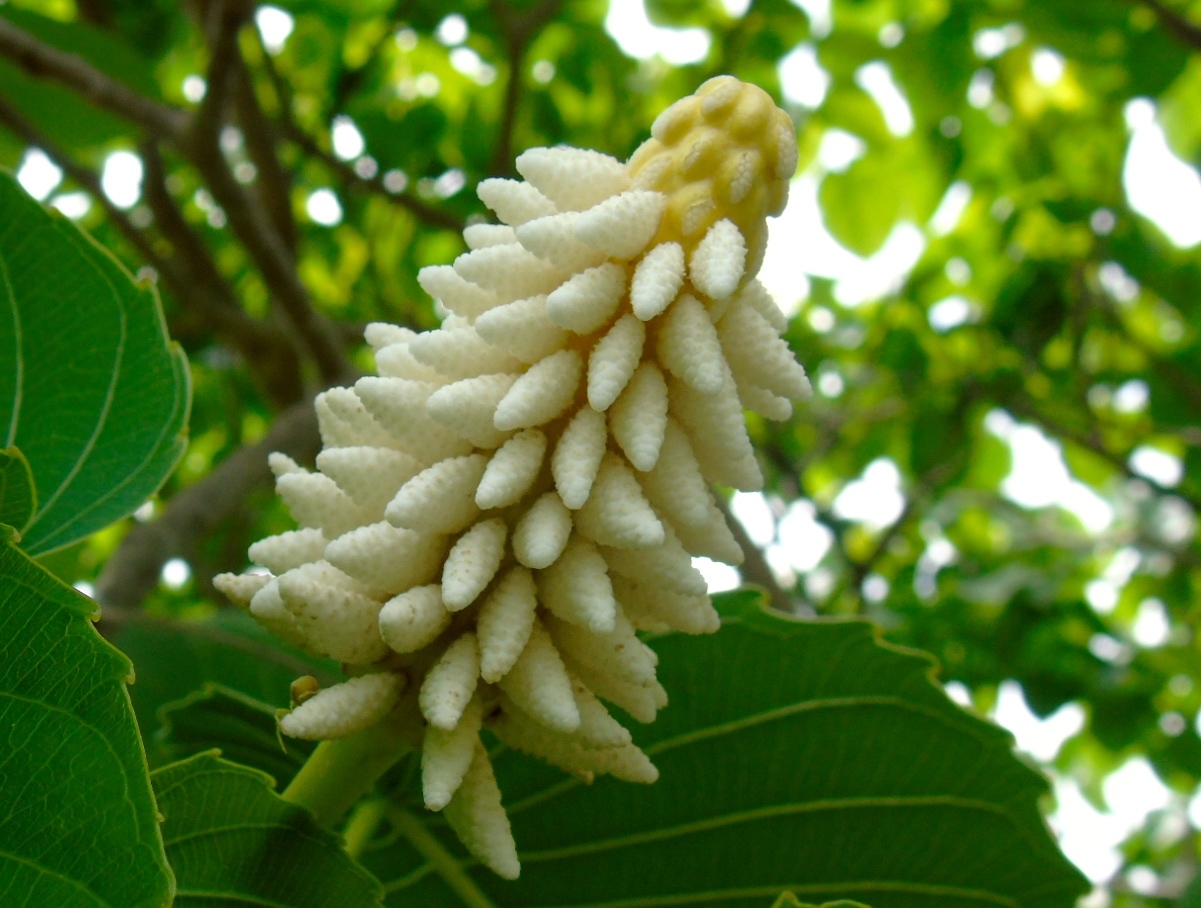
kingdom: Plantae
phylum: Tracheophyta
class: Magnoliopsida
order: Malpighiales
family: Euphorbiaceae
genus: Hura
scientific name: Hura polyandra
